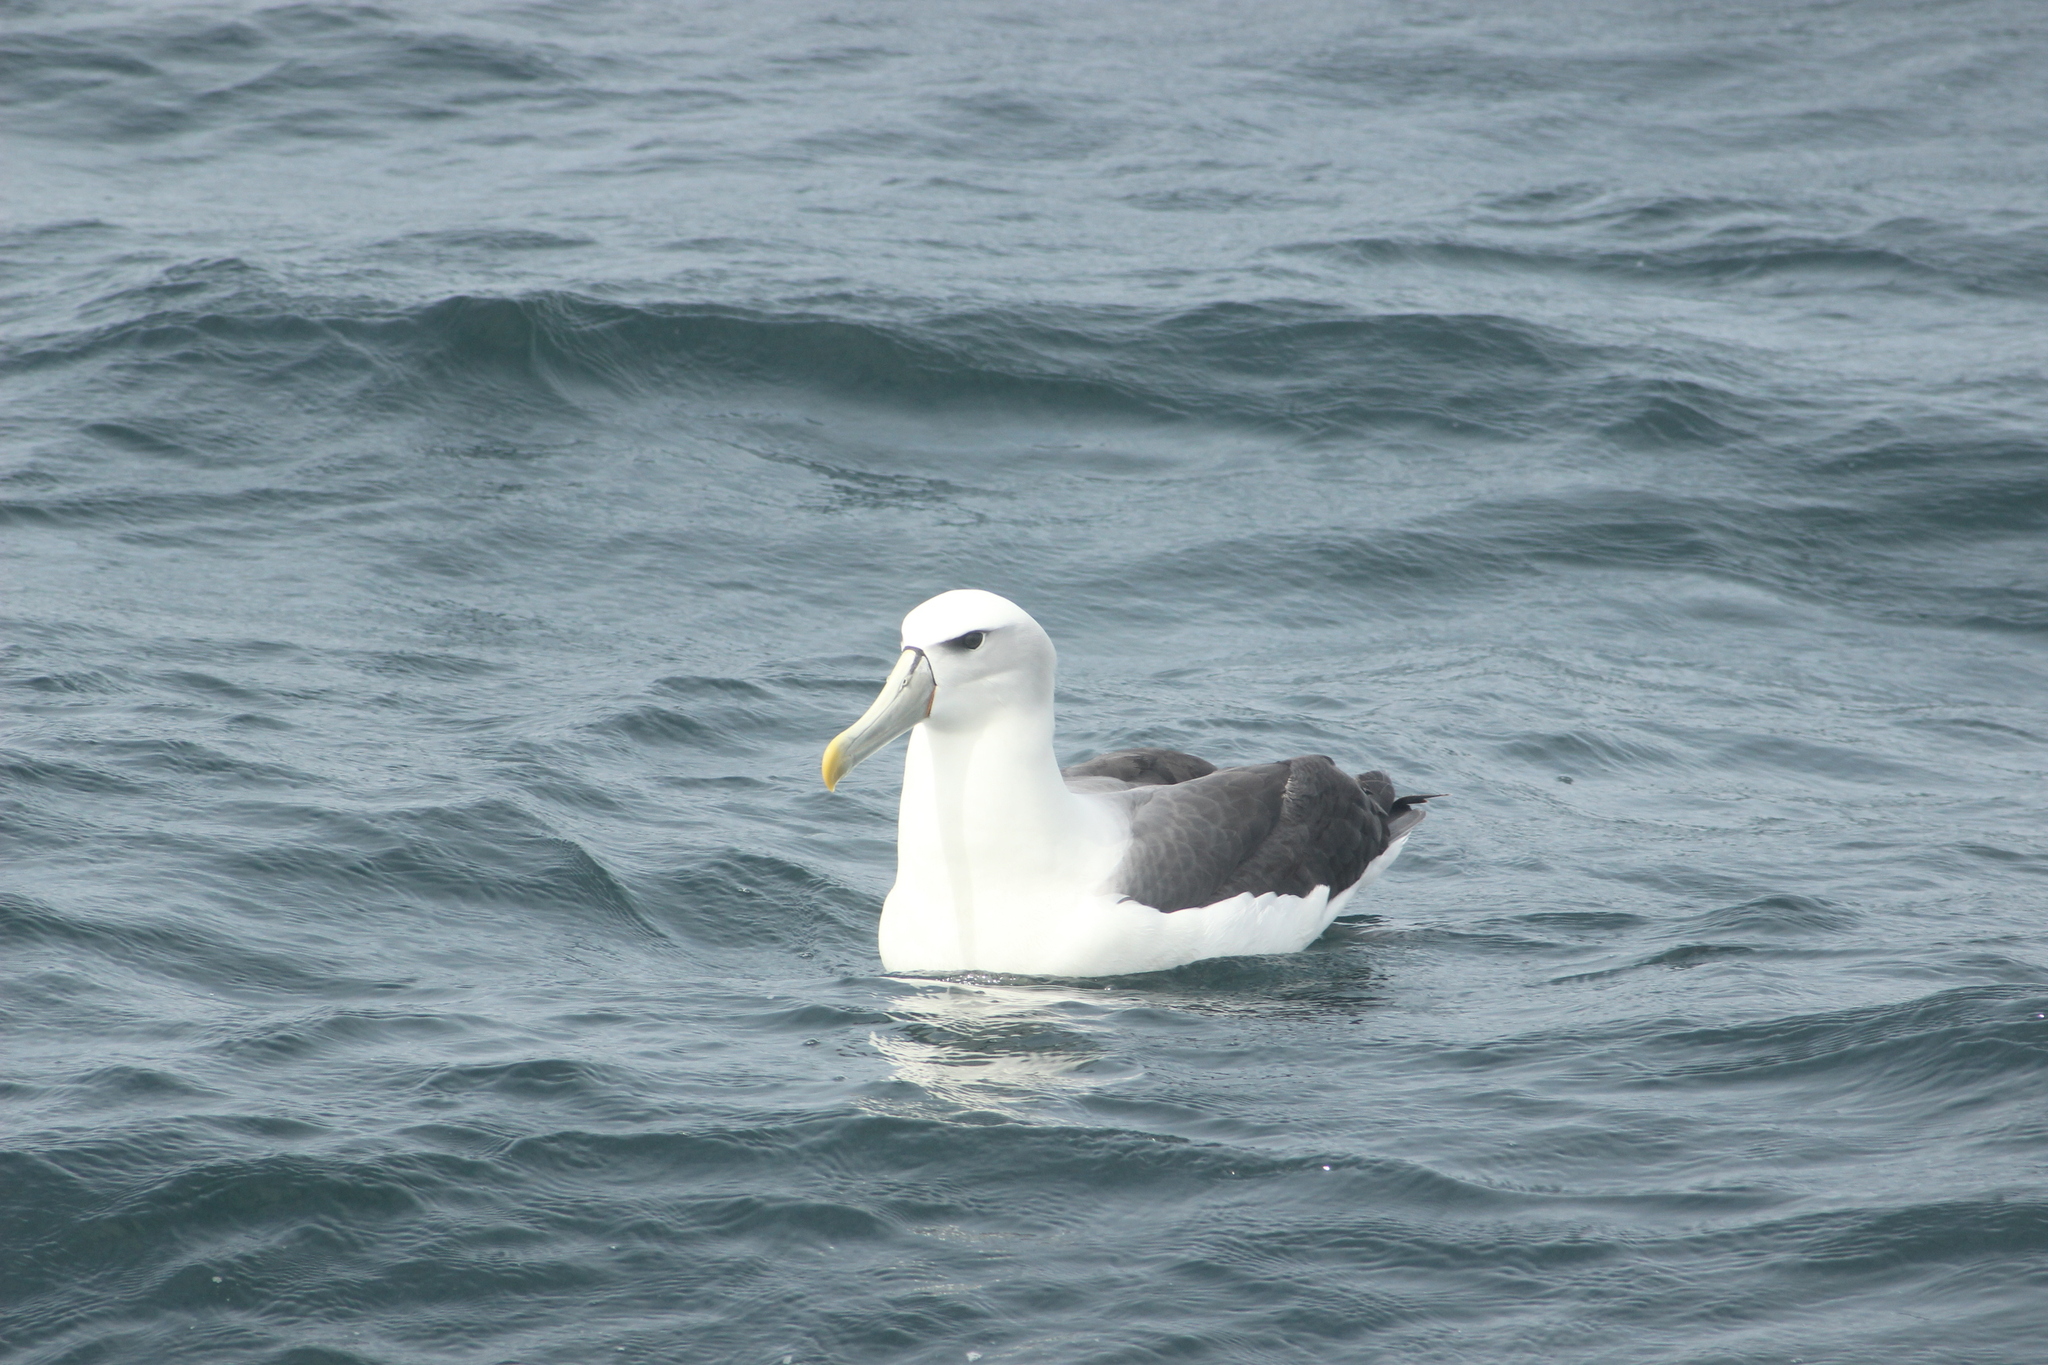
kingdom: Animalia
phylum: Chordata
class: Aves
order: Procellariiformes
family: Diomedeidae
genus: Thalassarche
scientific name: Thalassarche cauta
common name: Shy albatross
